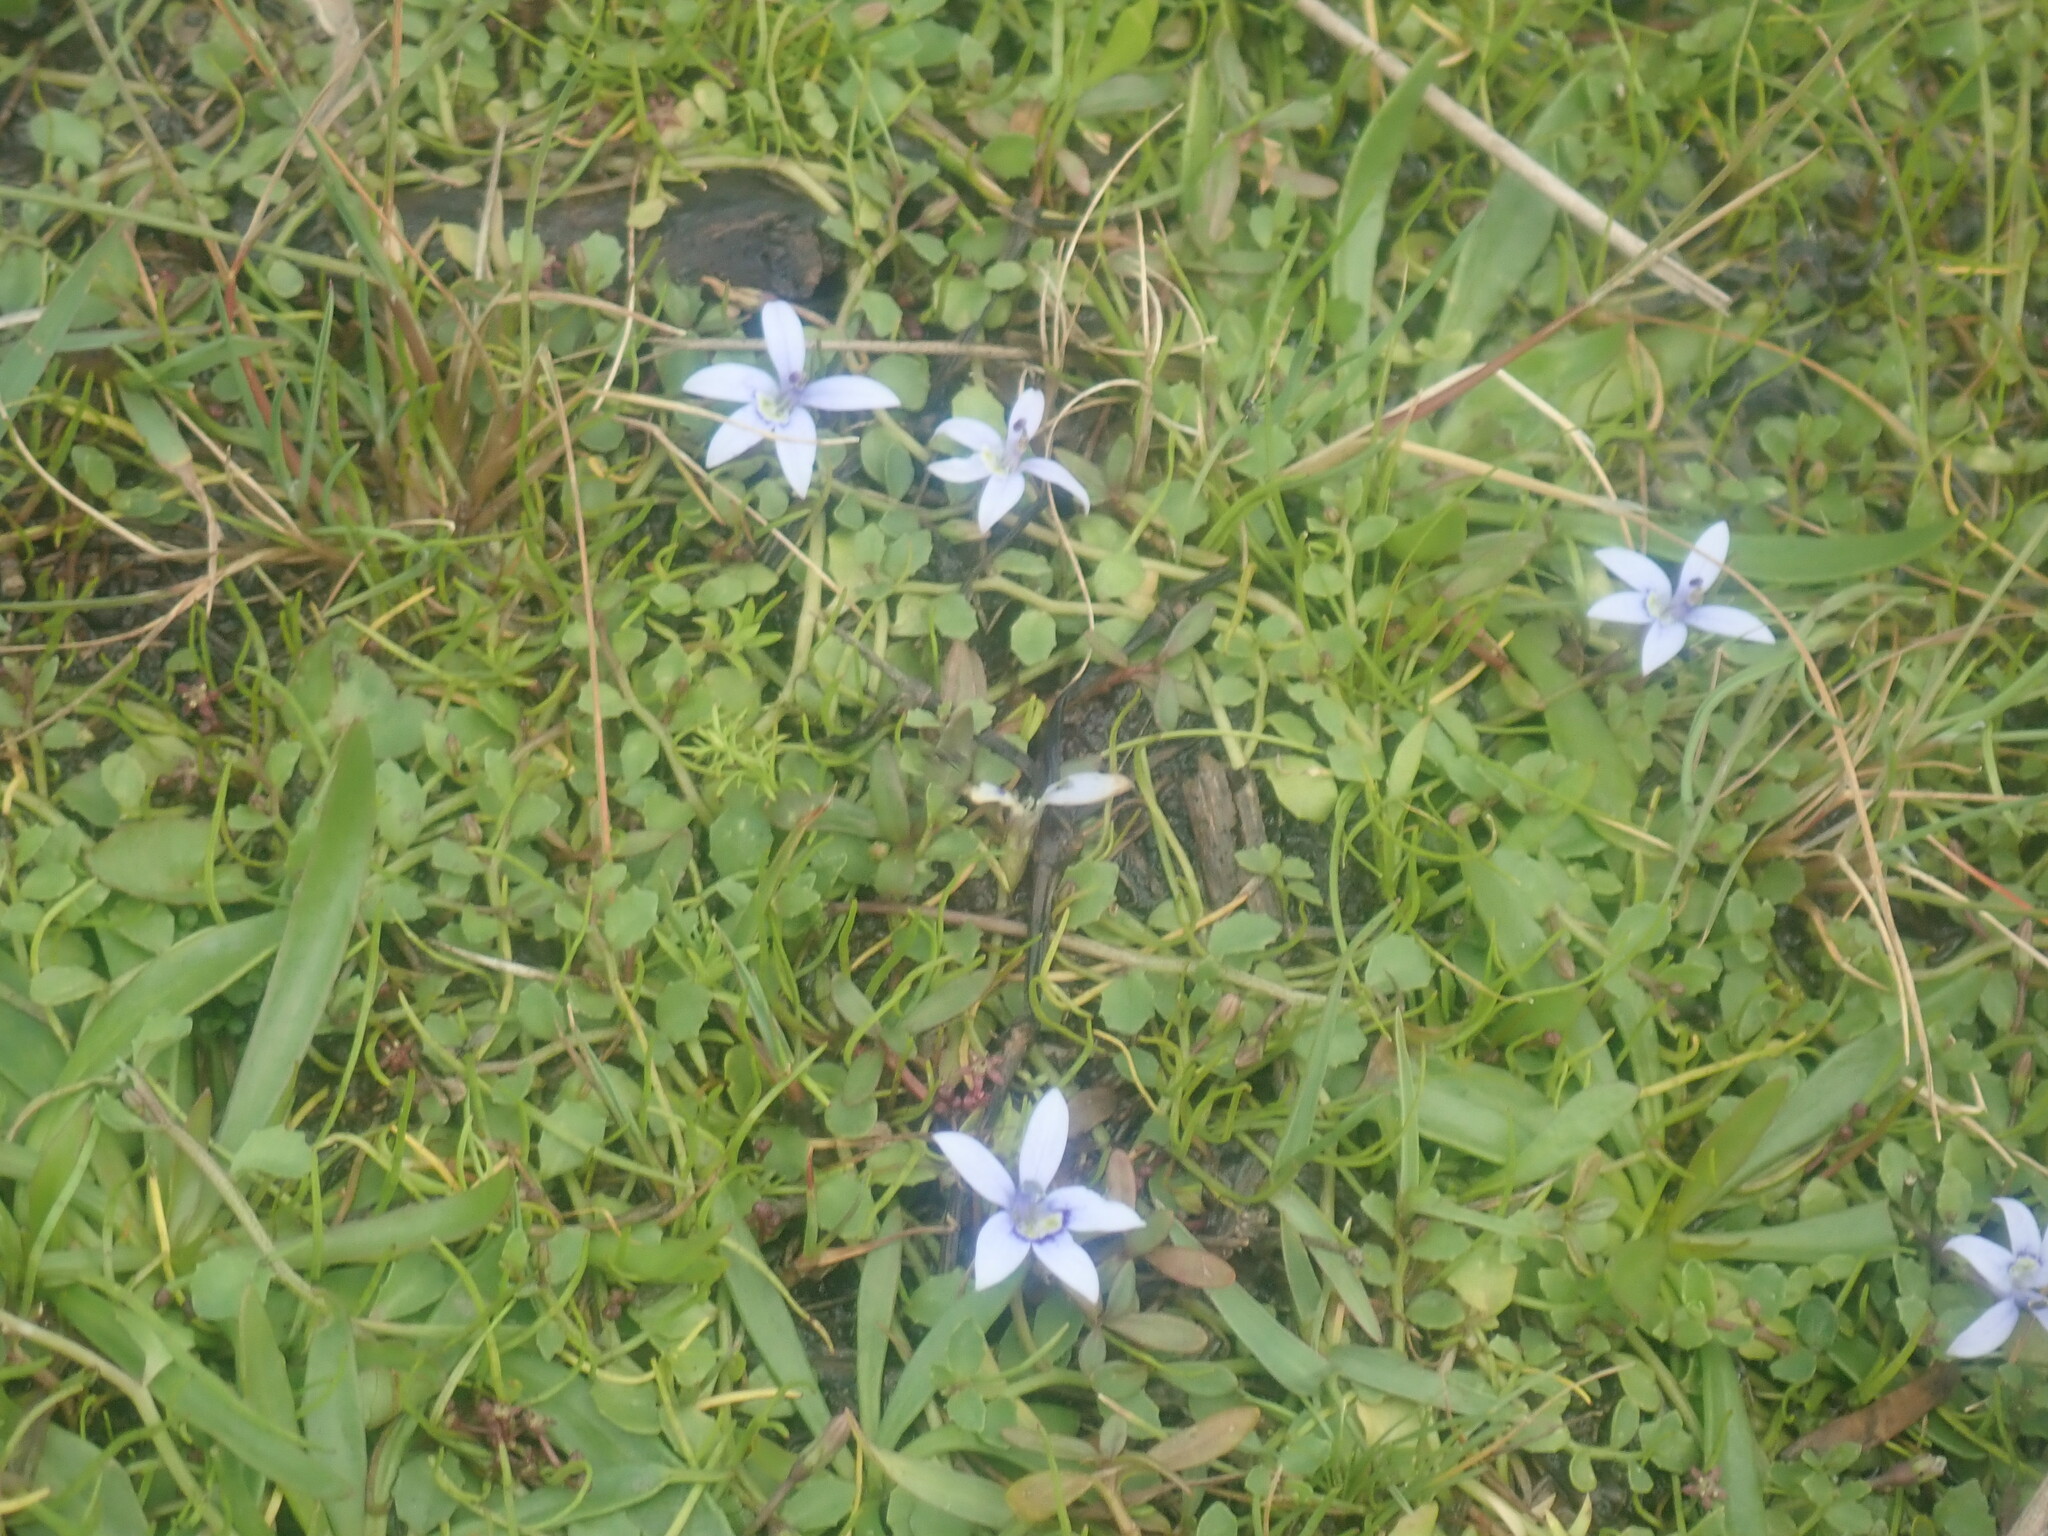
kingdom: Plantae
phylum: Tracheophyta
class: Magnoliopsida
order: Asterales
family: Campanulaceae
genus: Isotoma
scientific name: Isotoma fluviatilis
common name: Isotoma
